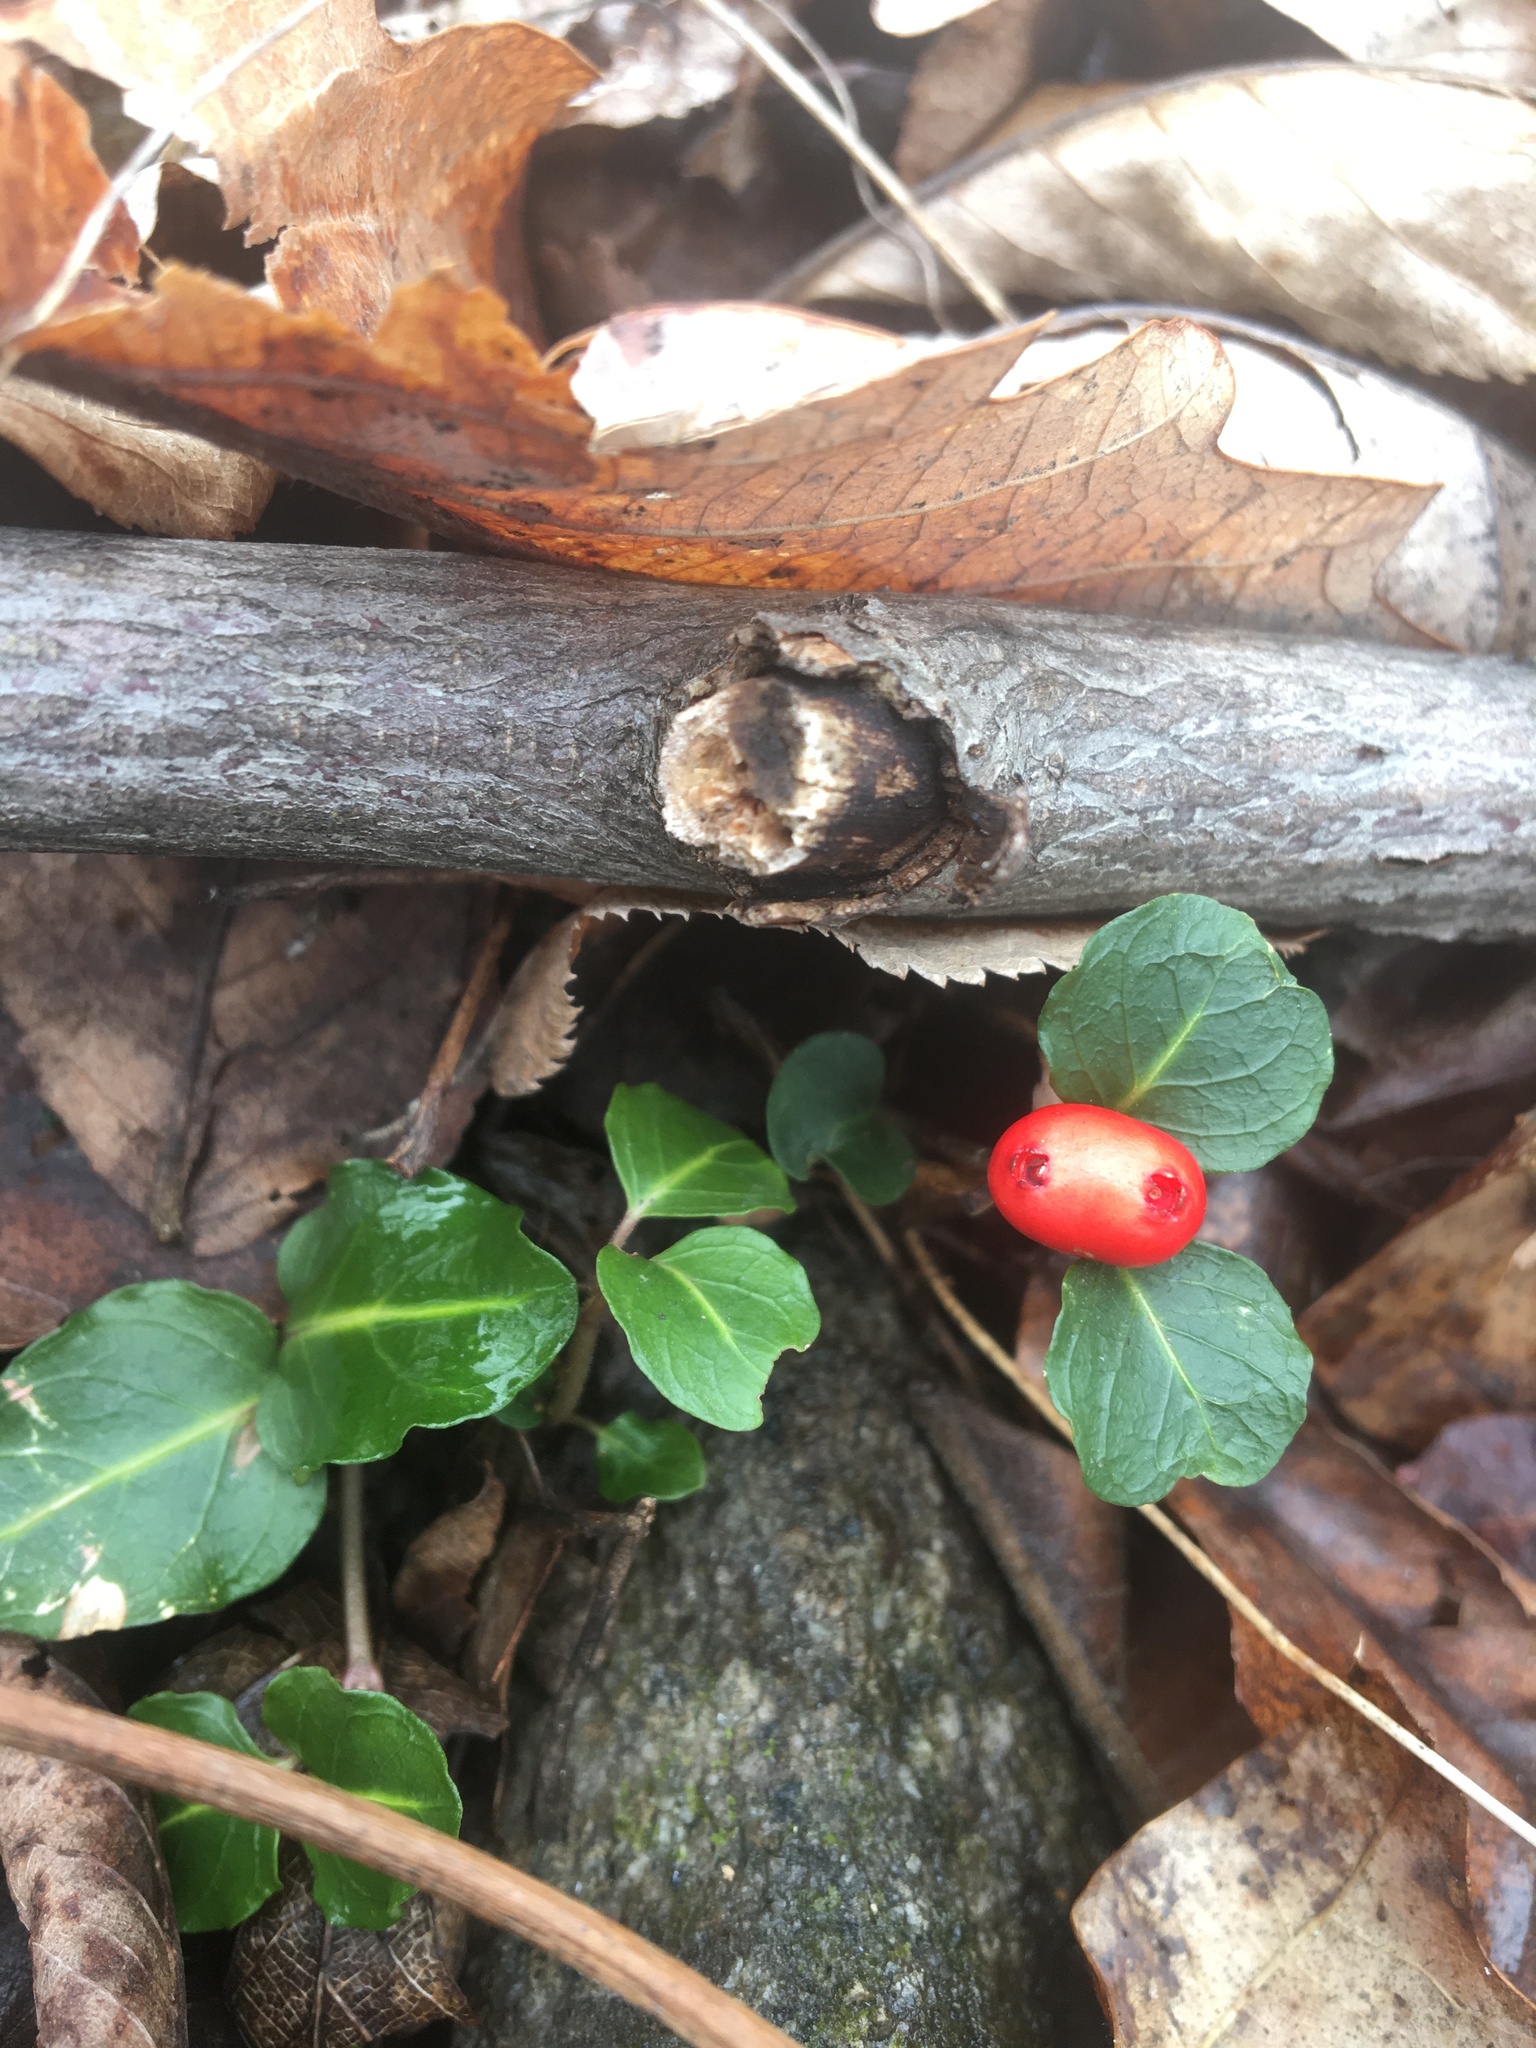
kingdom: Plantae
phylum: Tracheophyta
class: Magnoliopsida
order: Gentianales
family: Rubiaceae
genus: Mitchella
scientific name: Mitchella repens
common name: Partridge-berry
